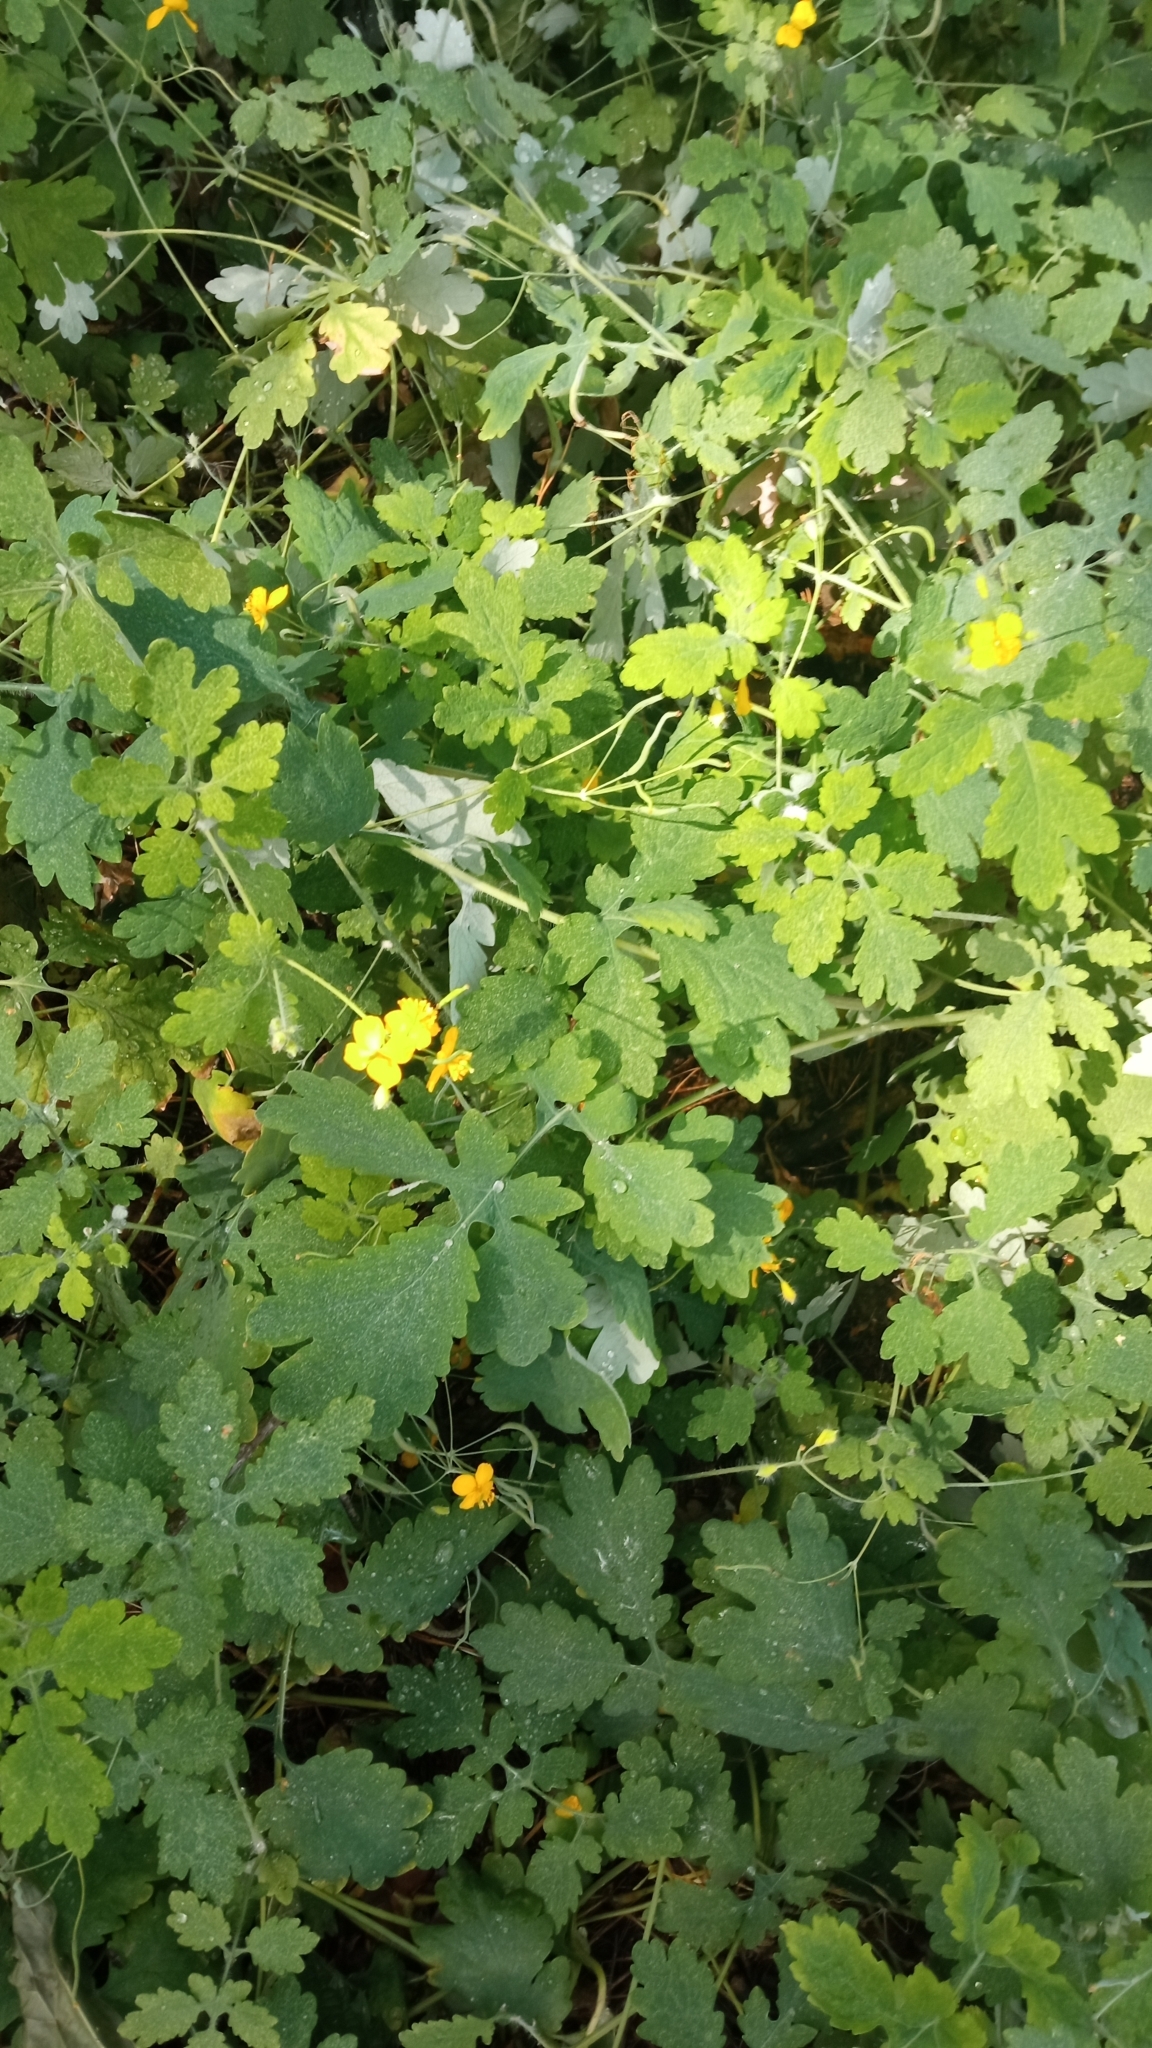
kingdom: Plantae
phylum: Tracheophyta
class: Magnoliopsida
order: Ranunculales
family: Papaveraceae
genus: Chelidonium
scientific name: Chelidonium majus
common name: Greater celandine
